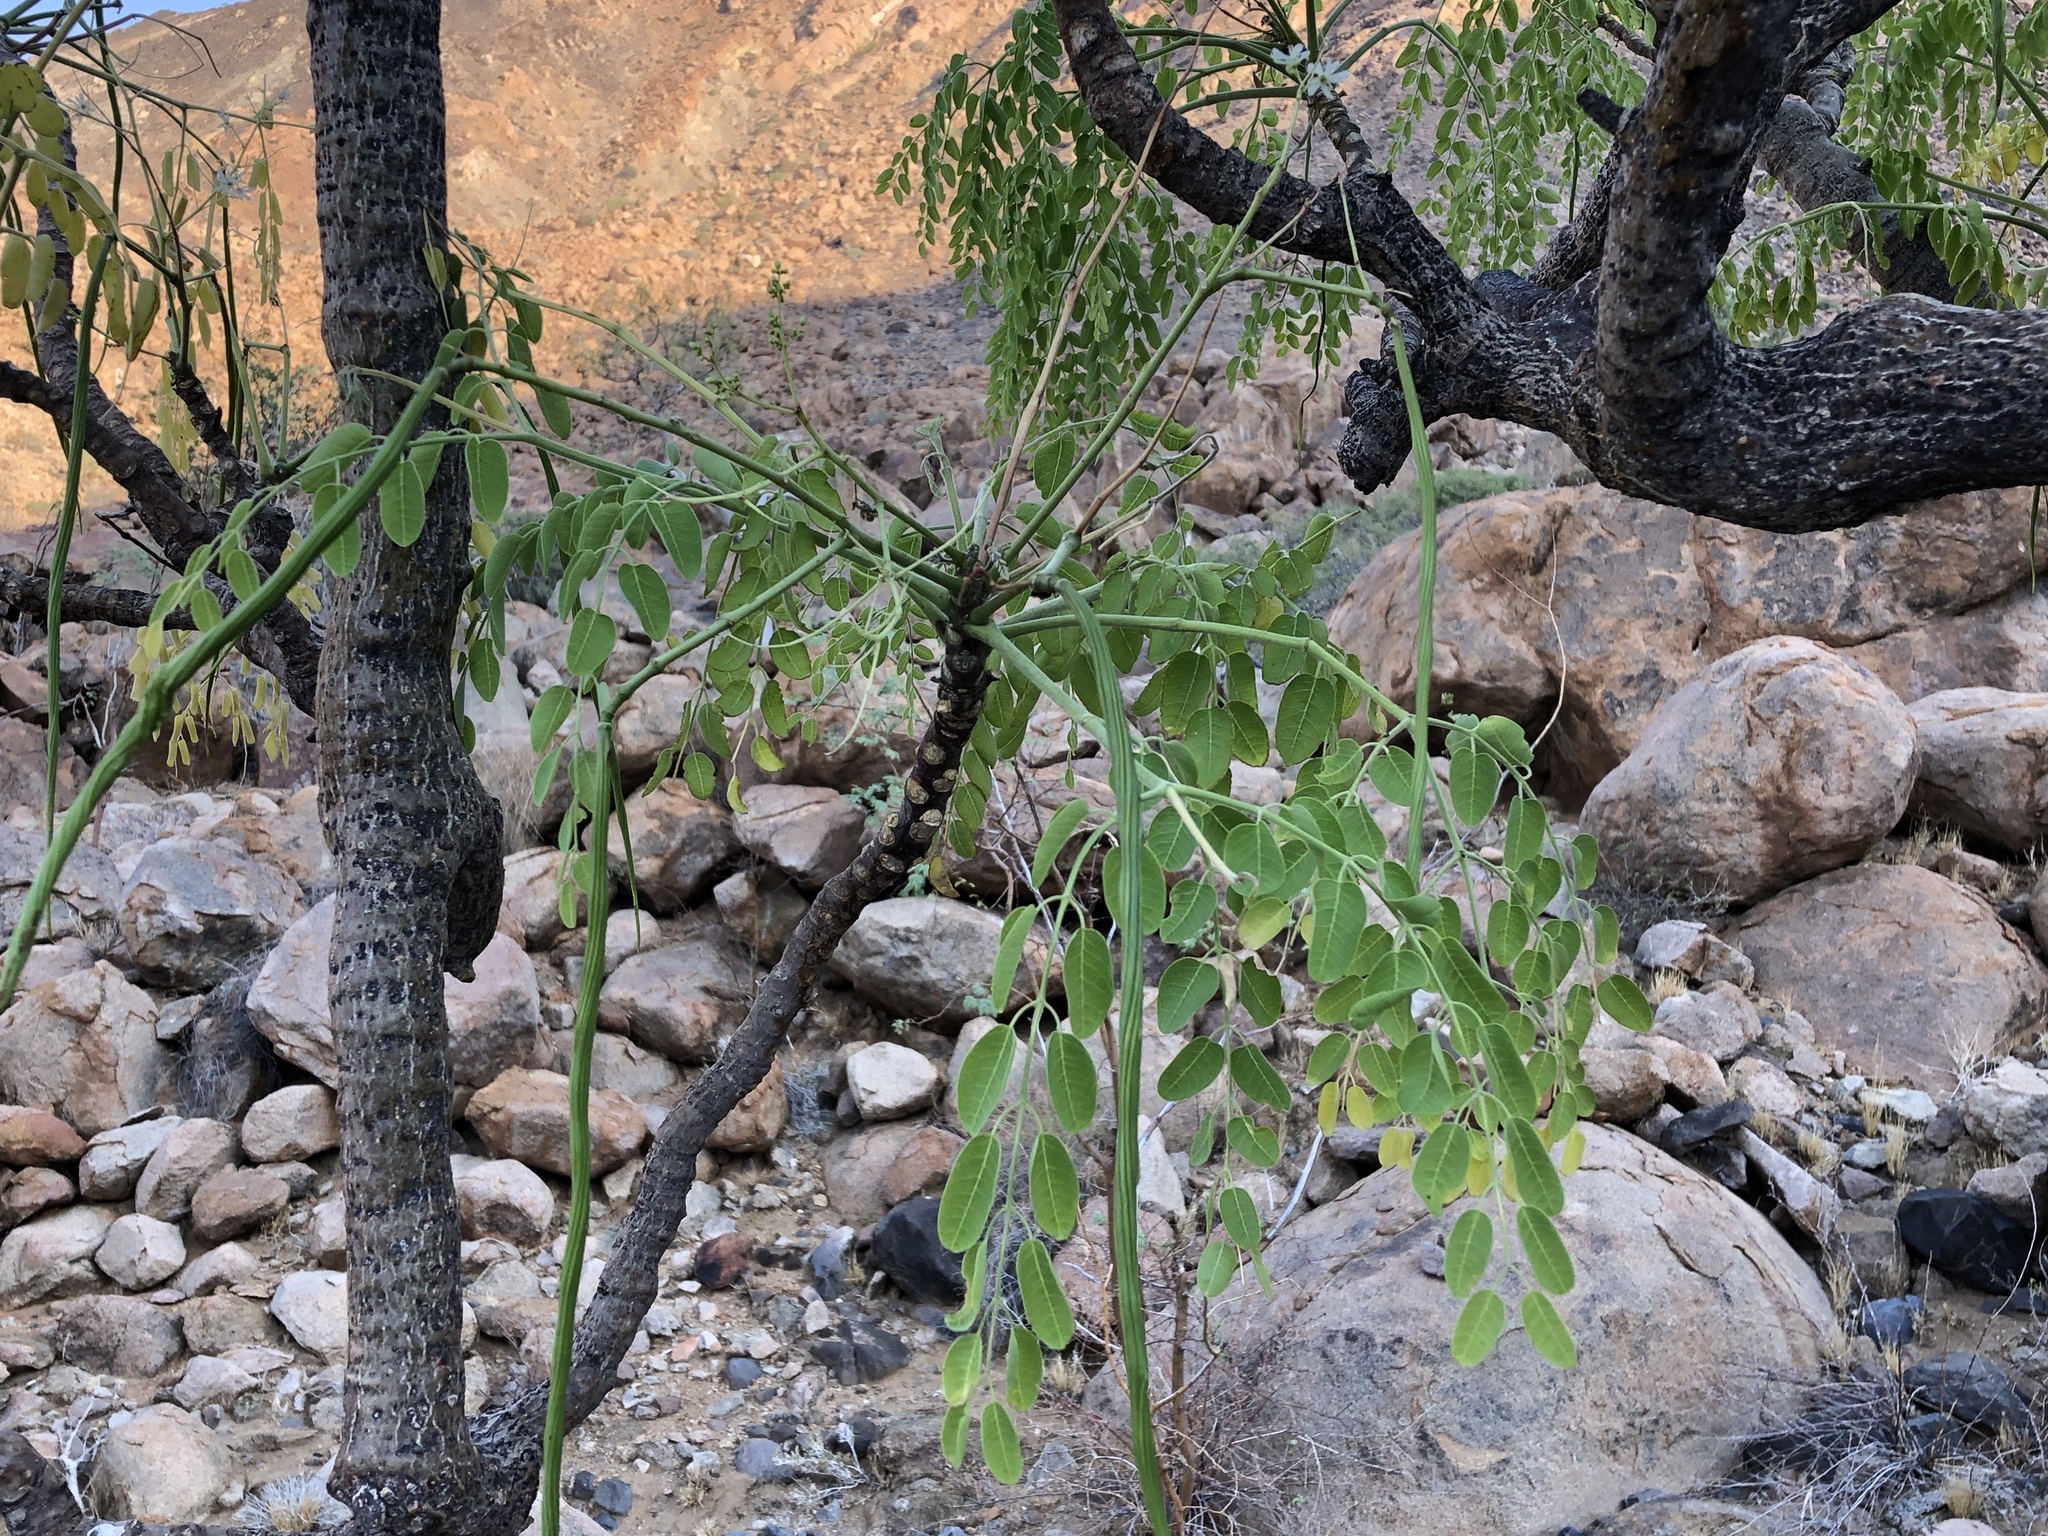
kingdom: Plantae
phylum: Tracheophyta
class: Magnoliopsida
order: Brassicales
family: Moringaceae
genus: Moringa
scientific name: Moringa ovalifolia
